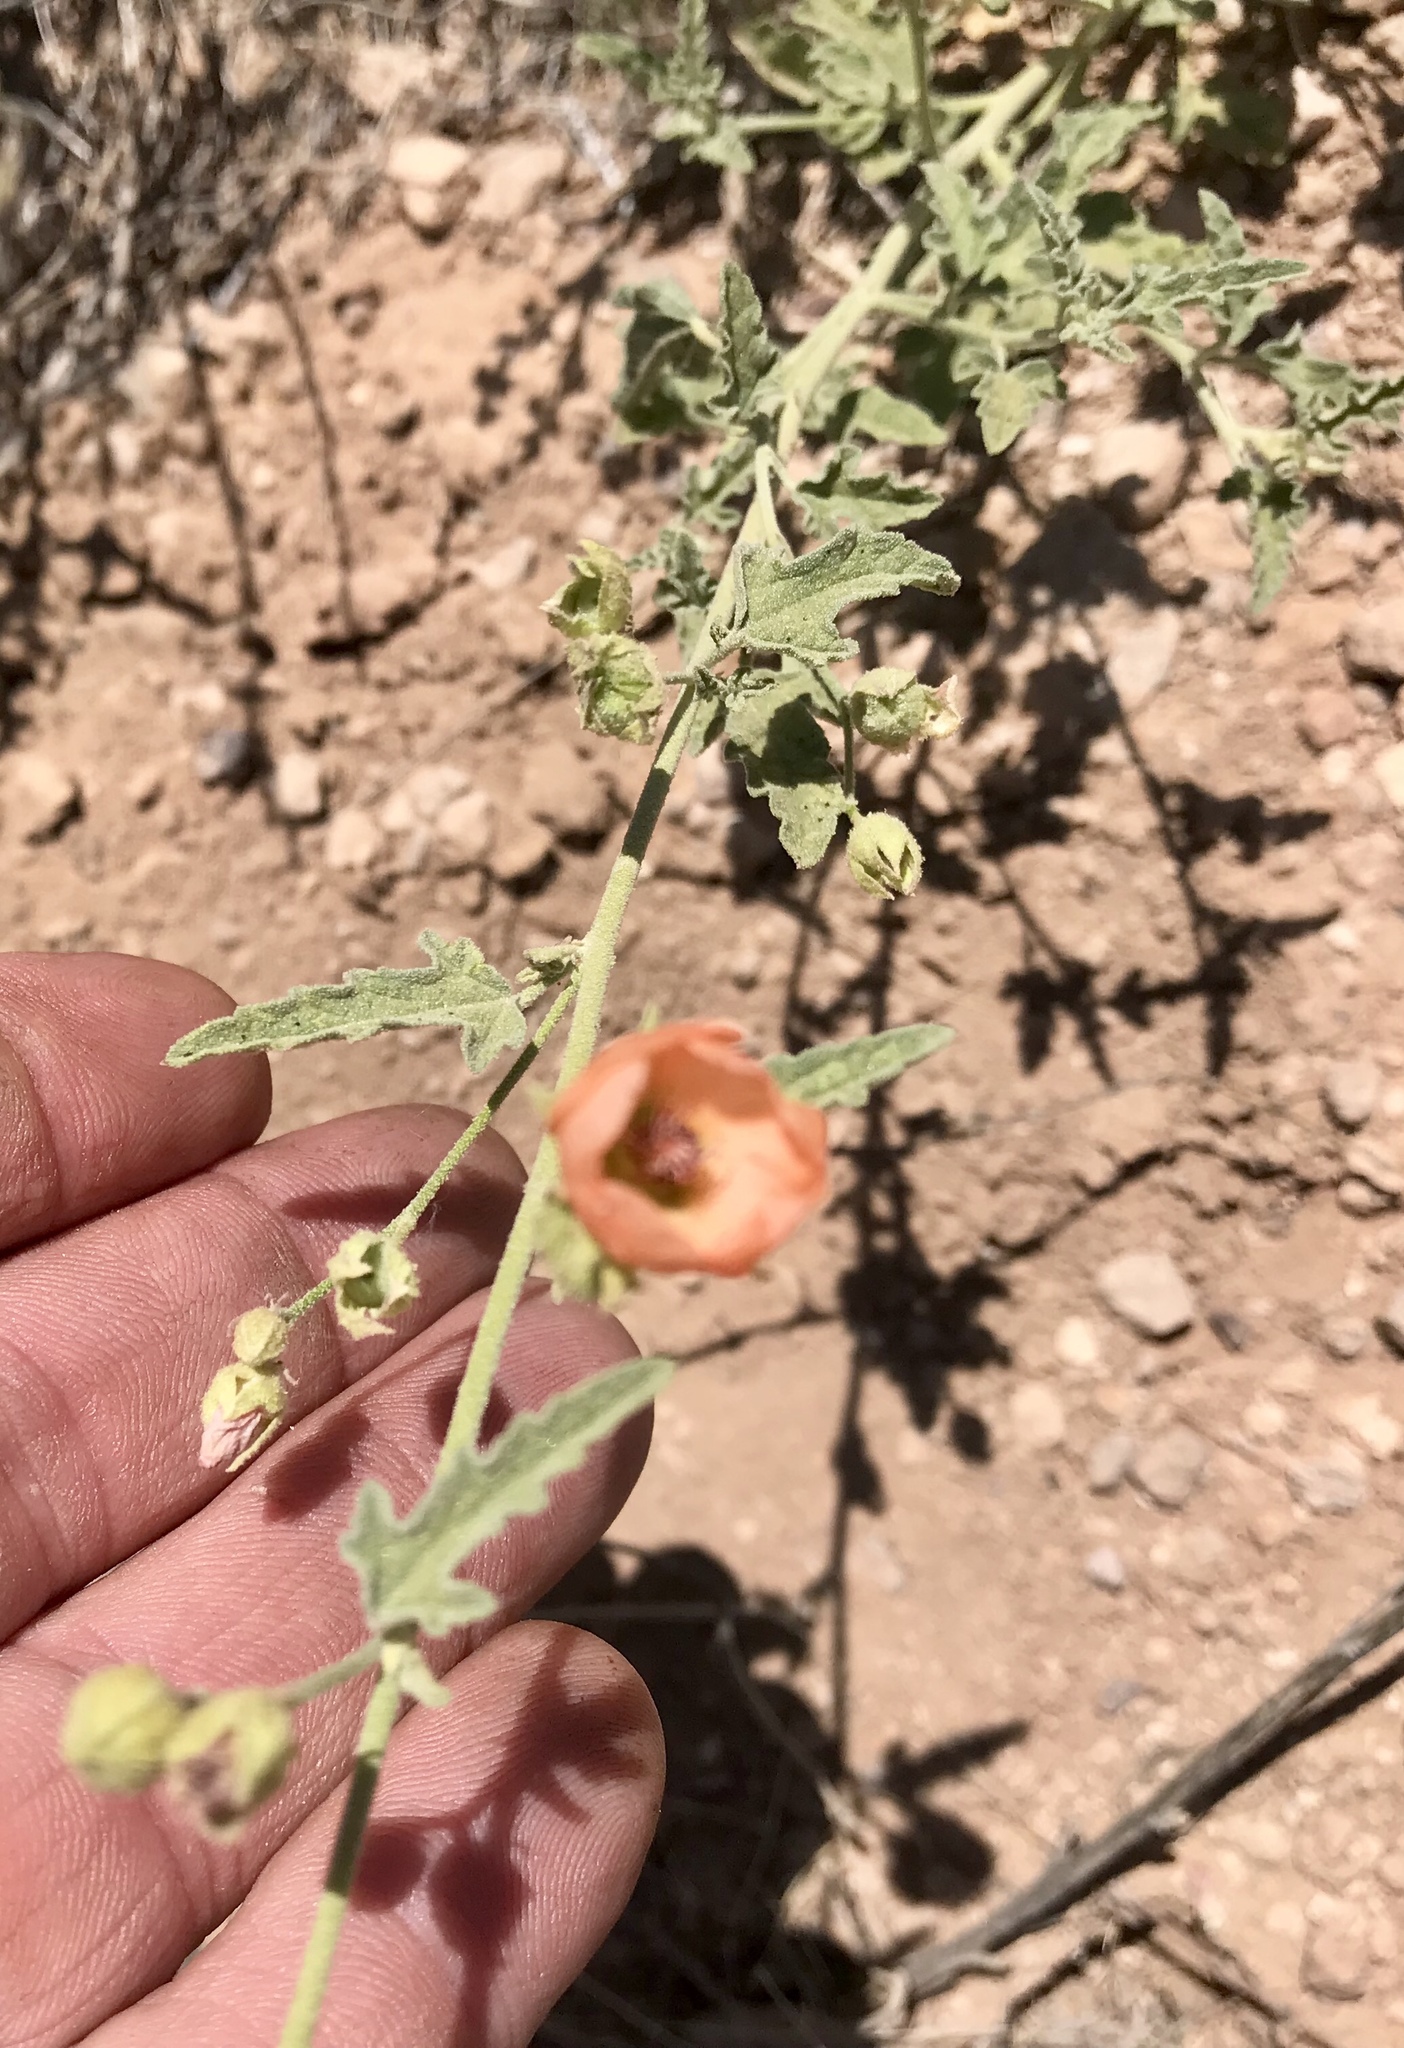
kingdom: Plantae
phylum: Tracheophyta
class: Magnoliopsida
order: Malvales
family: Malvaceae
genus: Sphaeralcea
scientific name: Sphaeralcea hastulata
